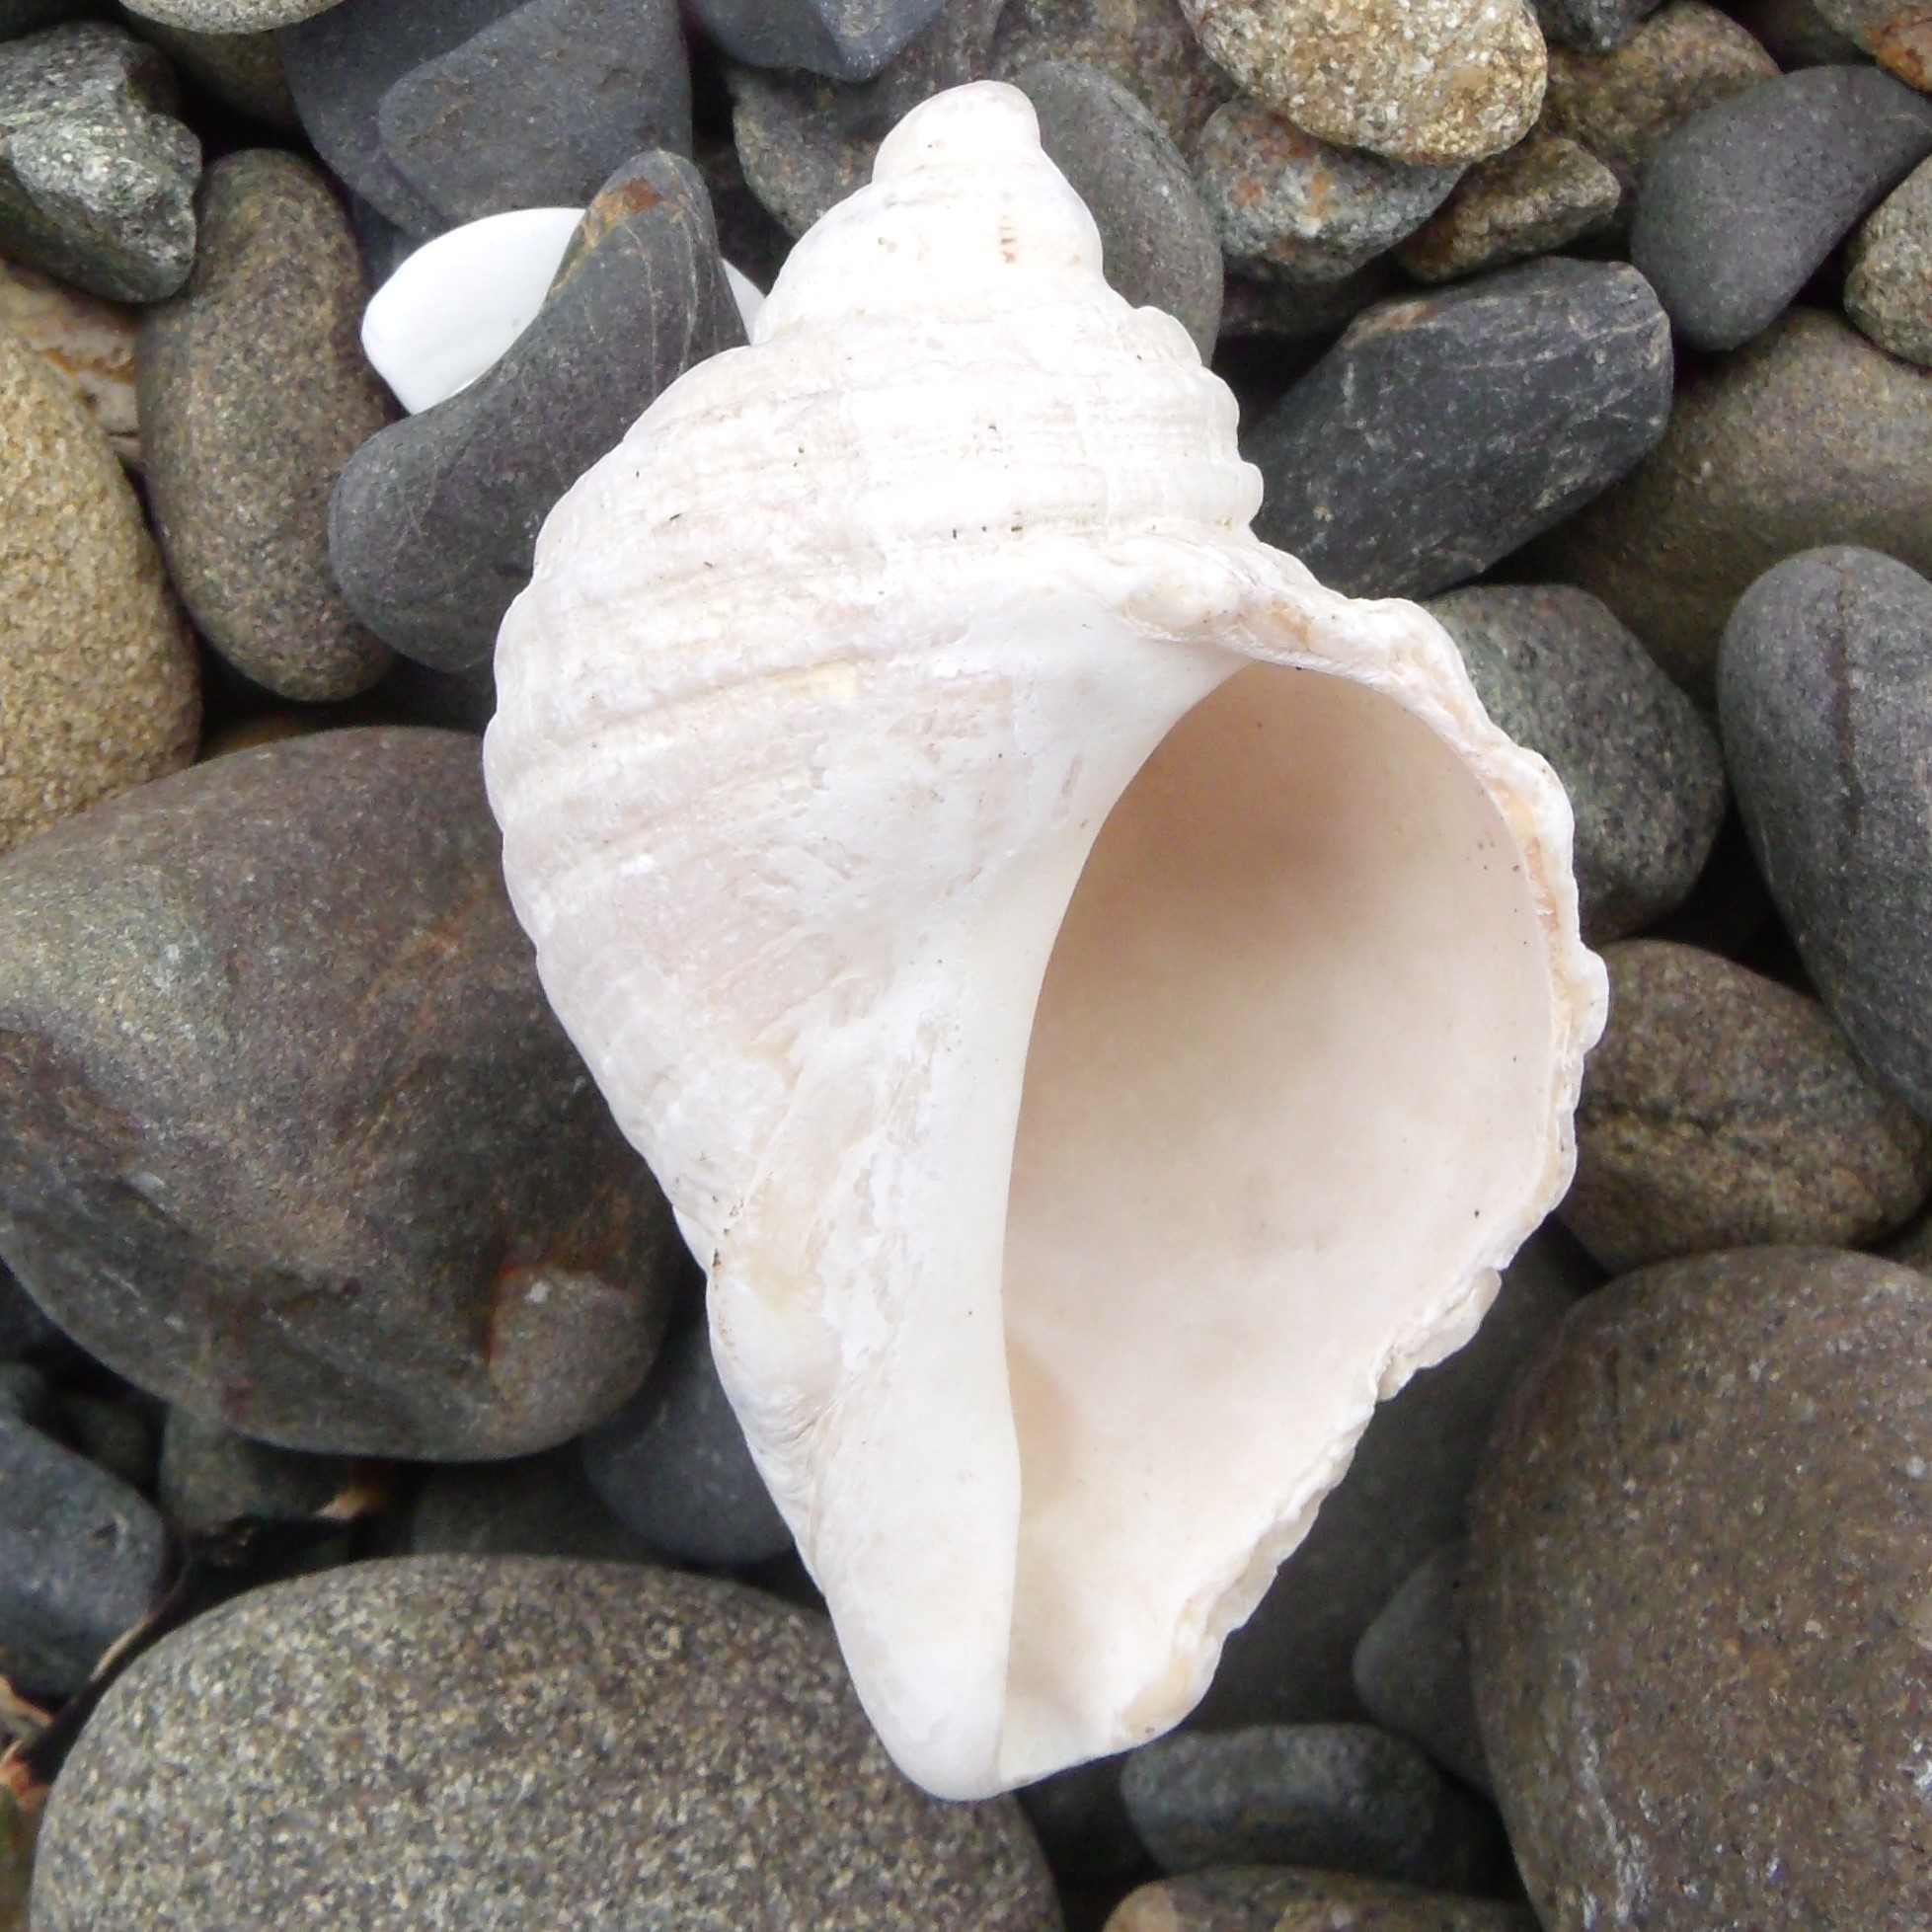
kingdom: Animalia
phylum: Mollusca
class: Gastropoda
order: Neogastropoda
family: Muricidae
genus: Dicathais
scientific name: Dicathais orbita
